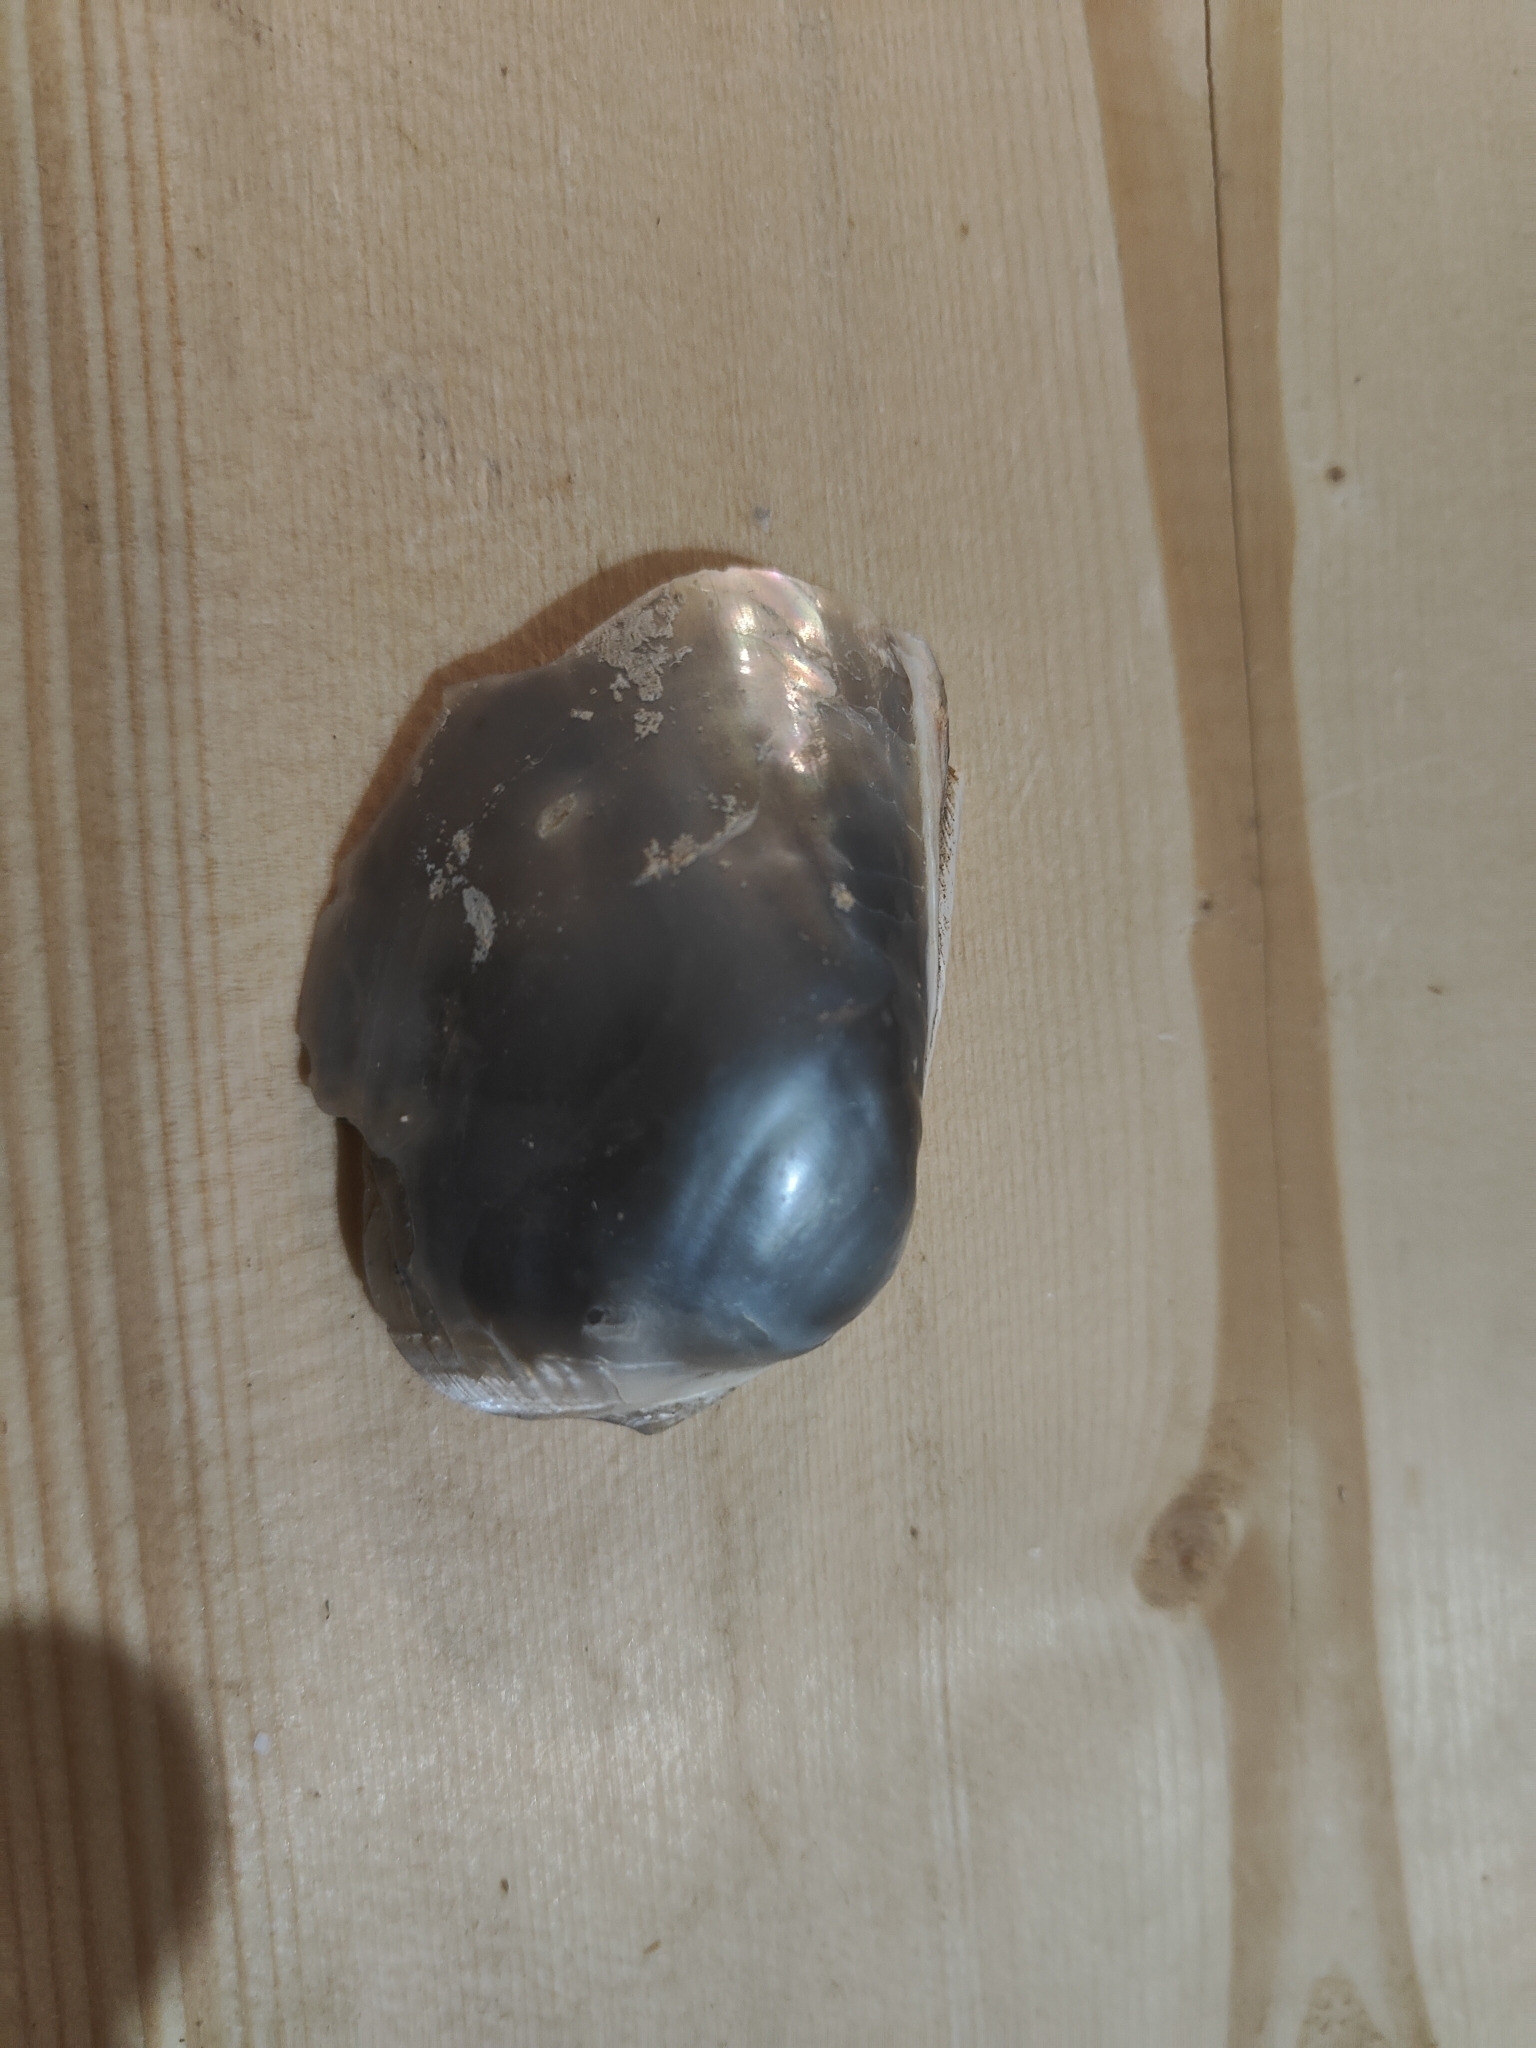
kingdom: Animalia
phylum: Mollusca
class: Bivalvia
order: Unionida
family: Unionidae
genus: Lampsilis
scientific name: Lampsilis cardium
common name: Plain pocketbook
